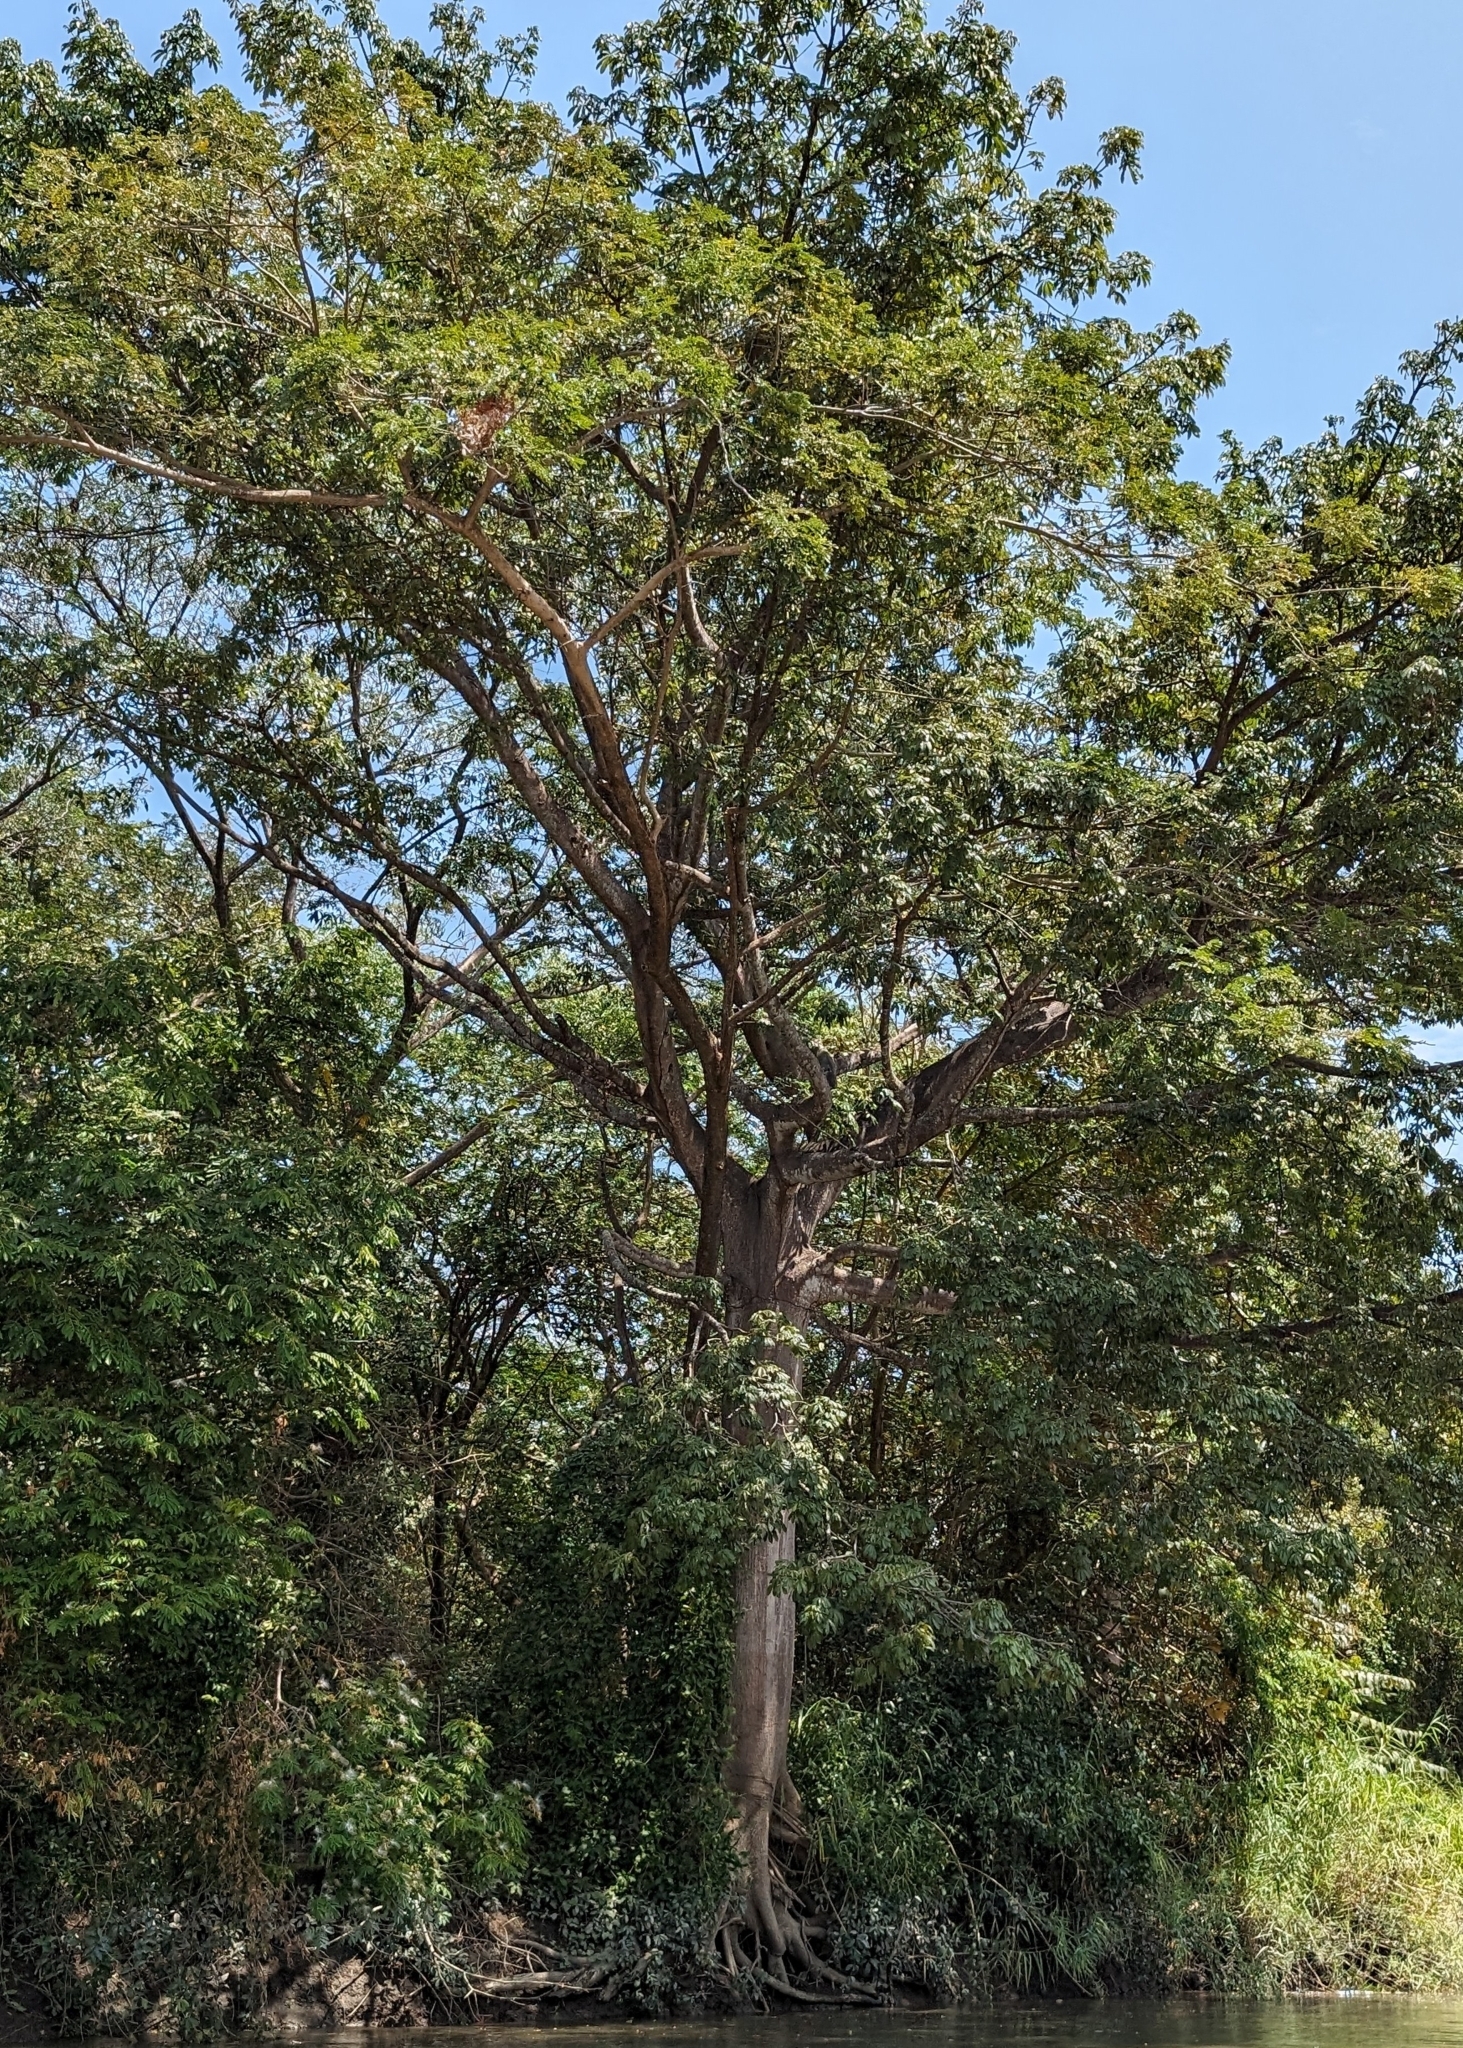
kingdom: Plantae
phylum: Tracheophyta
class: Magnoliopsida
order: Malvales
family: Malvaceae
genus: Ceiba
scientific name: Ceiba pentandra
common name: Kapok
